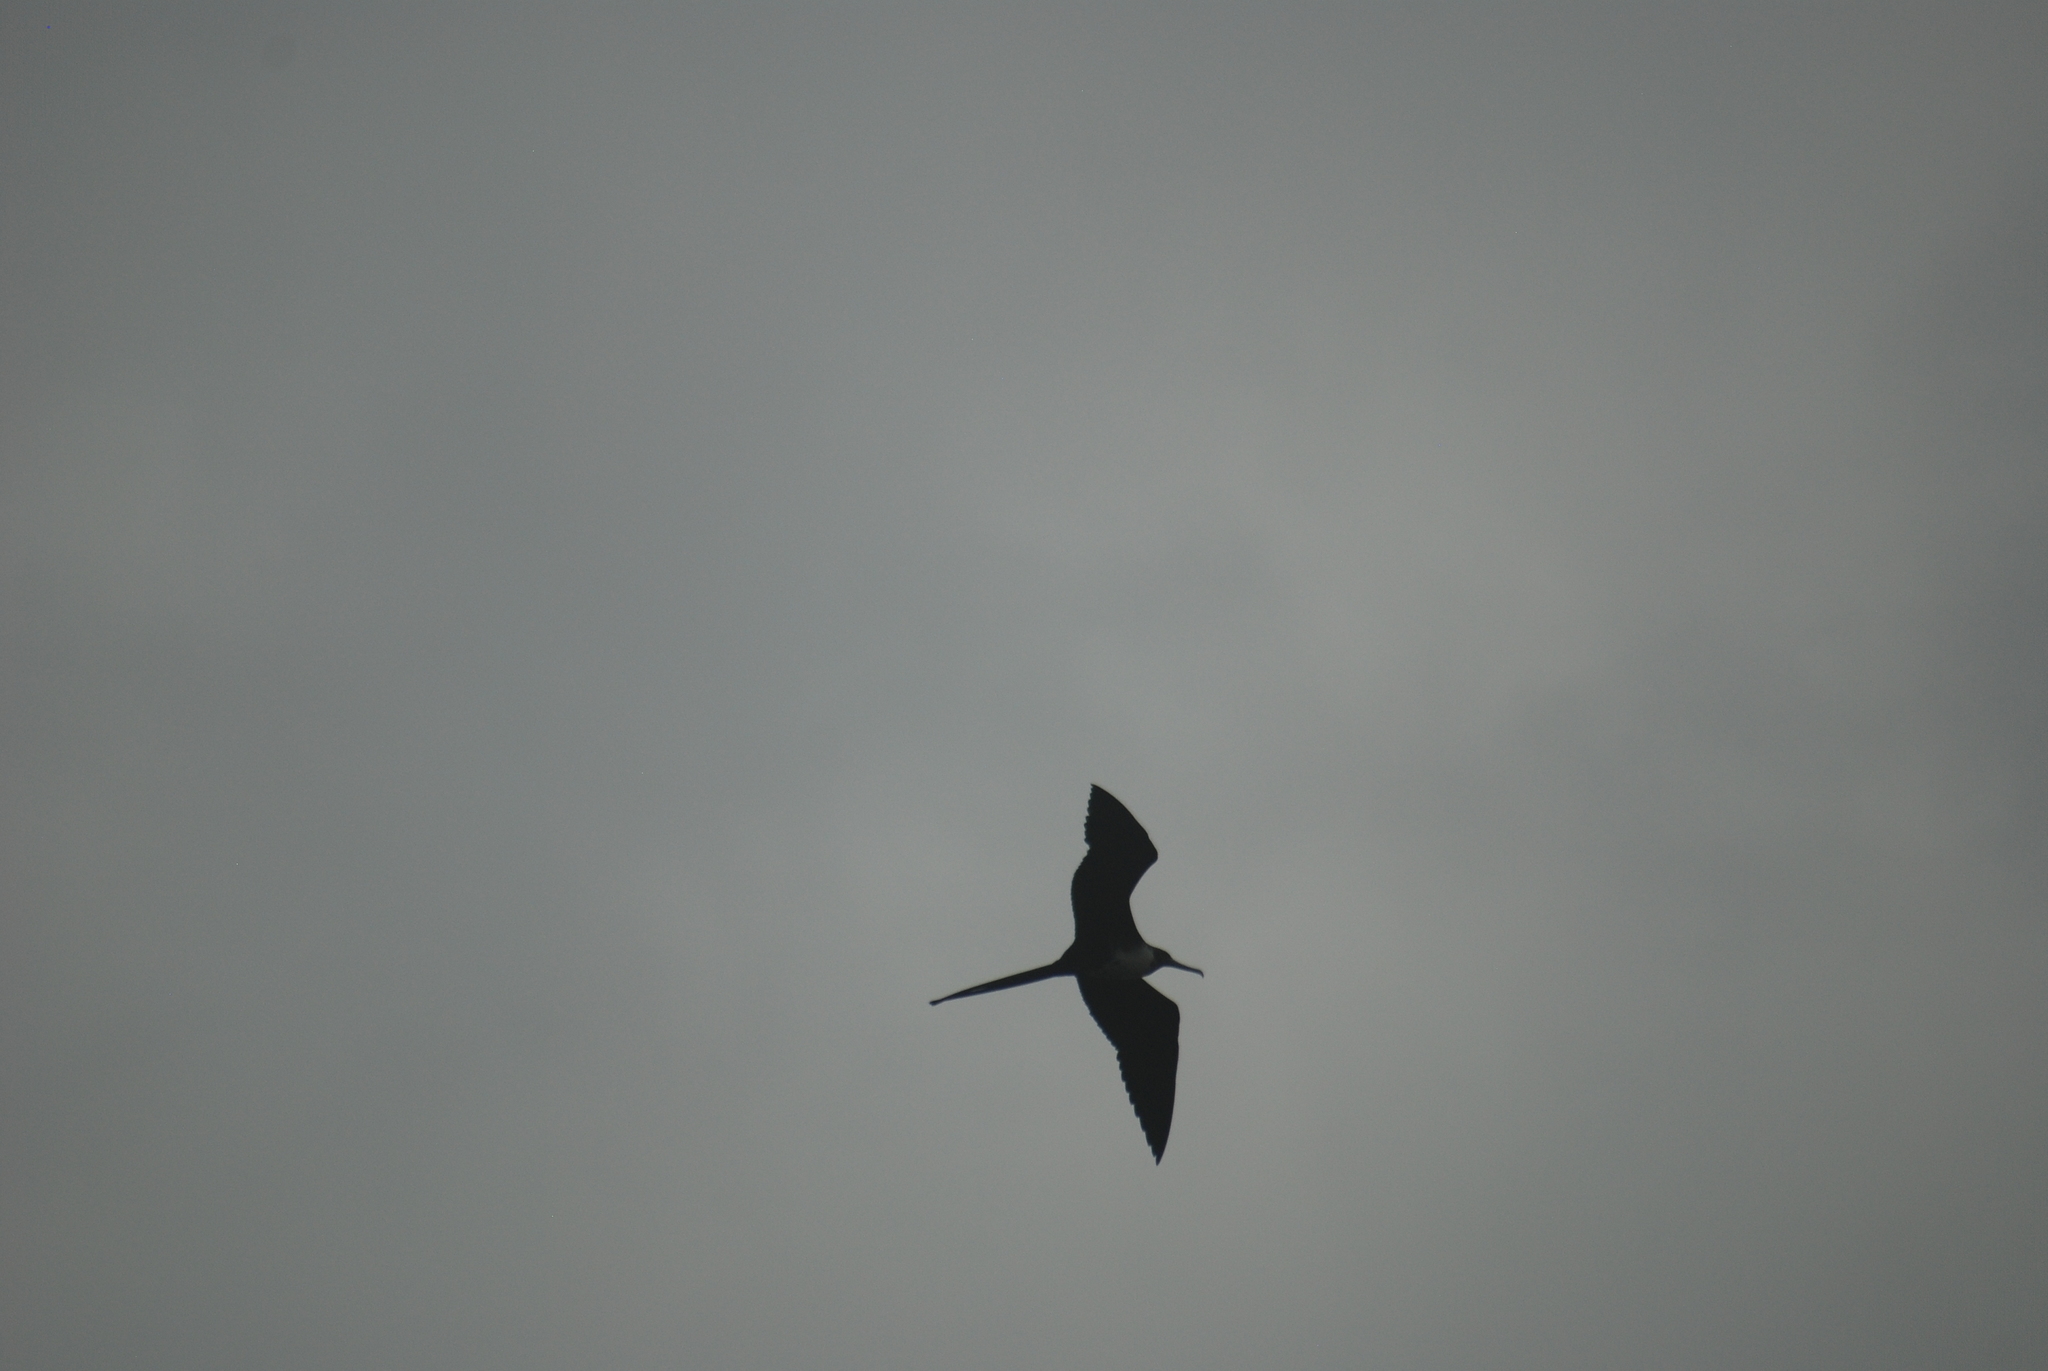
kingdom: Animalia
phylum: Chordata
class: Aves
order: Suliformes
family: Fregatidae
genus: Fregata
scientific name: Fregata magnificens
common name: Magnificent frigatebird
